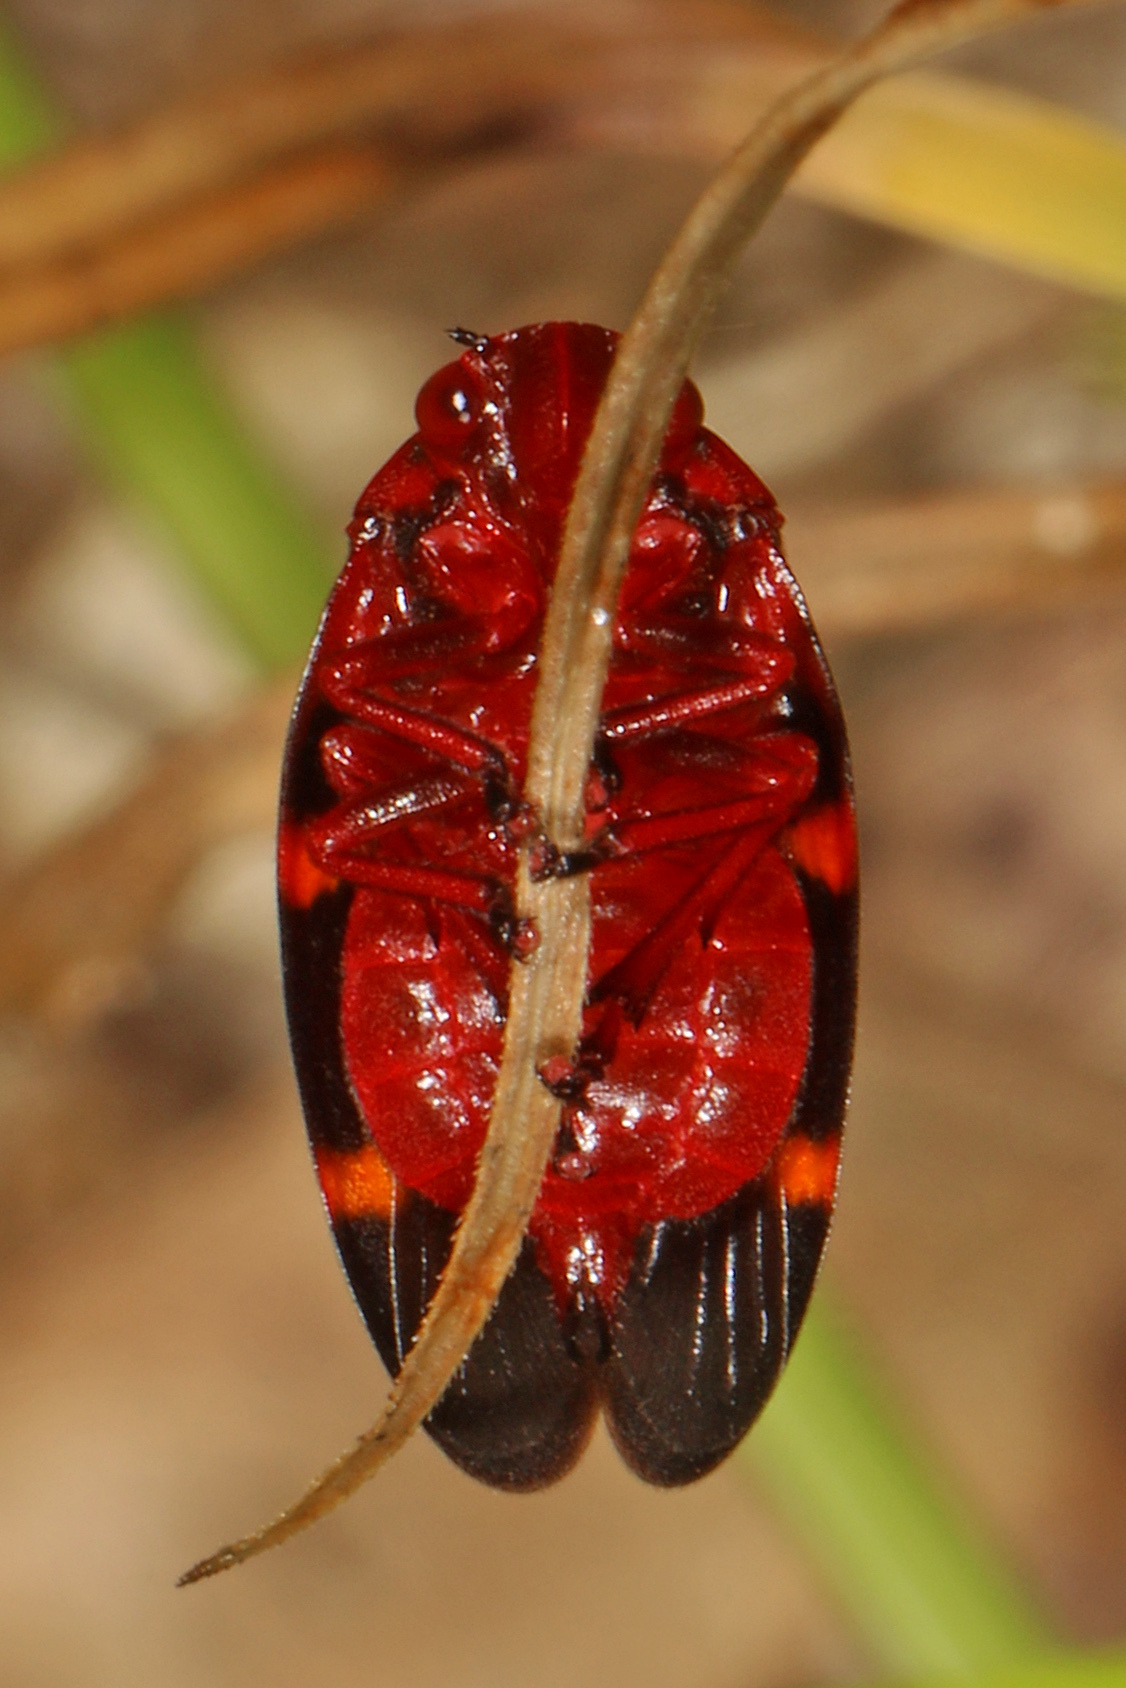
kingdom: Animalia
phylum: Arthropoda
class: Insecta
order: Hemiptera
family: Cercopidae
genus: Prosapia
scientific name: Prosapia bicincta
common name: Twolined spittlebug
